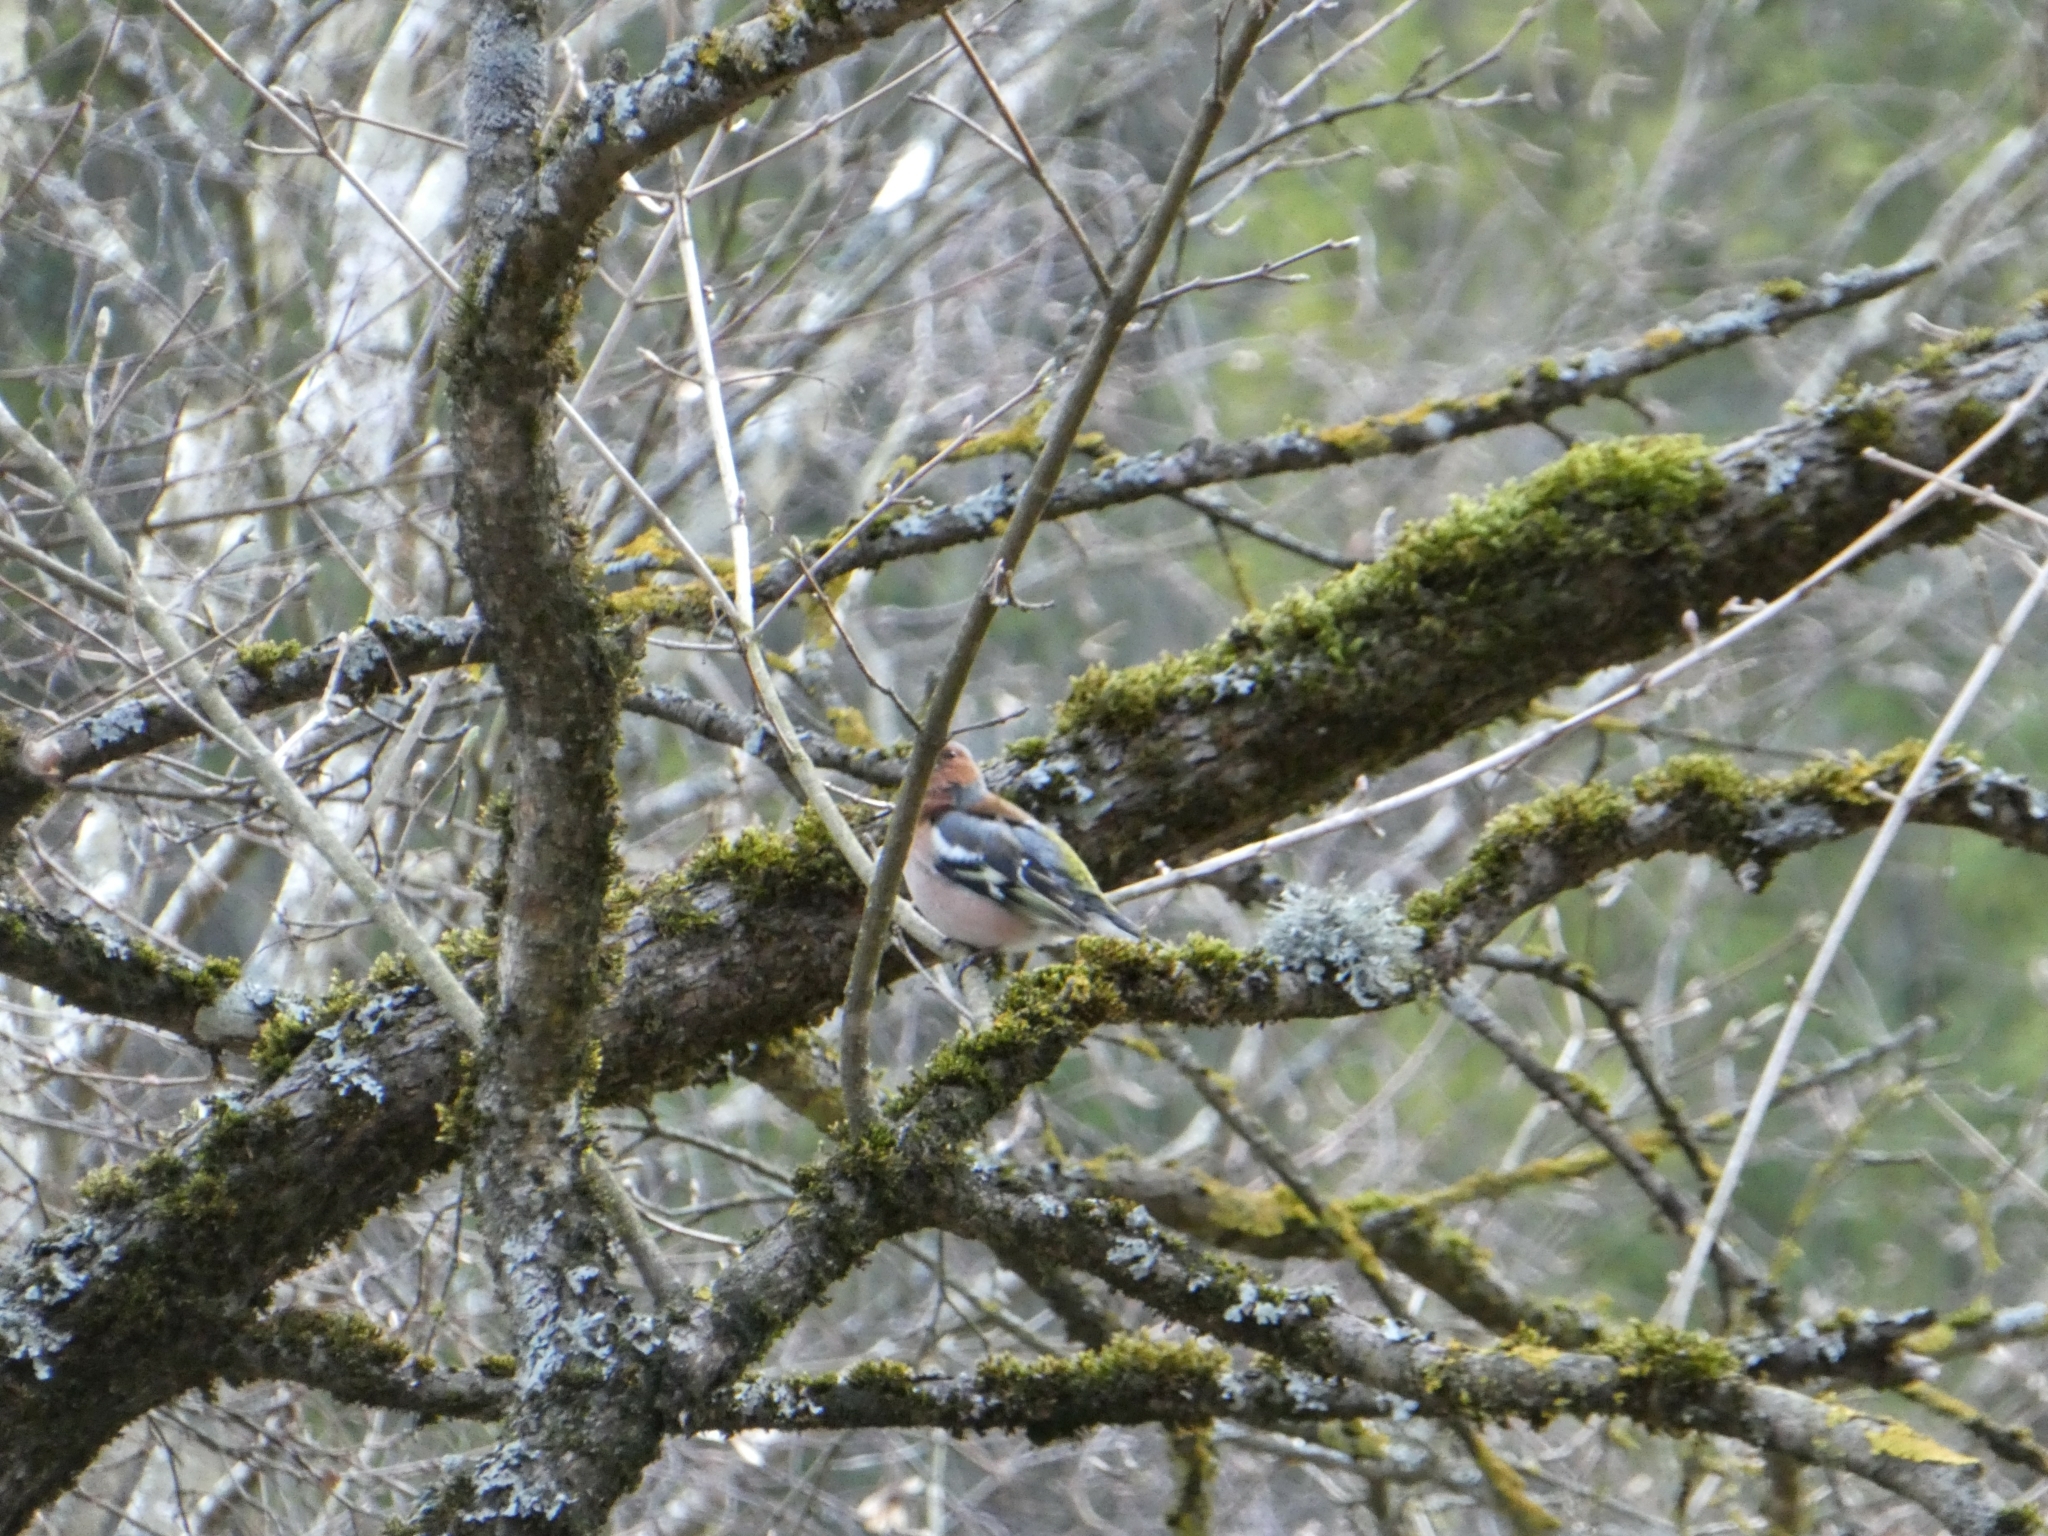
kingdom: Animalia
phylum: Chordata
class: Aves
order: Passeriformes
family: Fringillidae
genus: Fringilla
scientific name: Fringilla coelebs
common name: Common chaffinch
